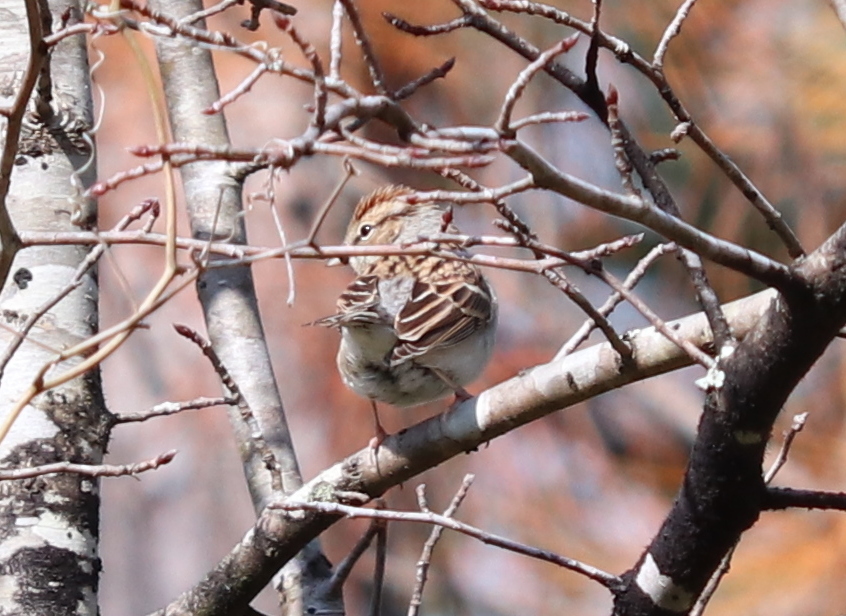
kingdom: Animalia
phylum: Chordata
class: Aves
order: Passeriformes
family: Passerellidae
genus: Spizella
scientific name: Spizella passerina
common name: Chipping sparrow
